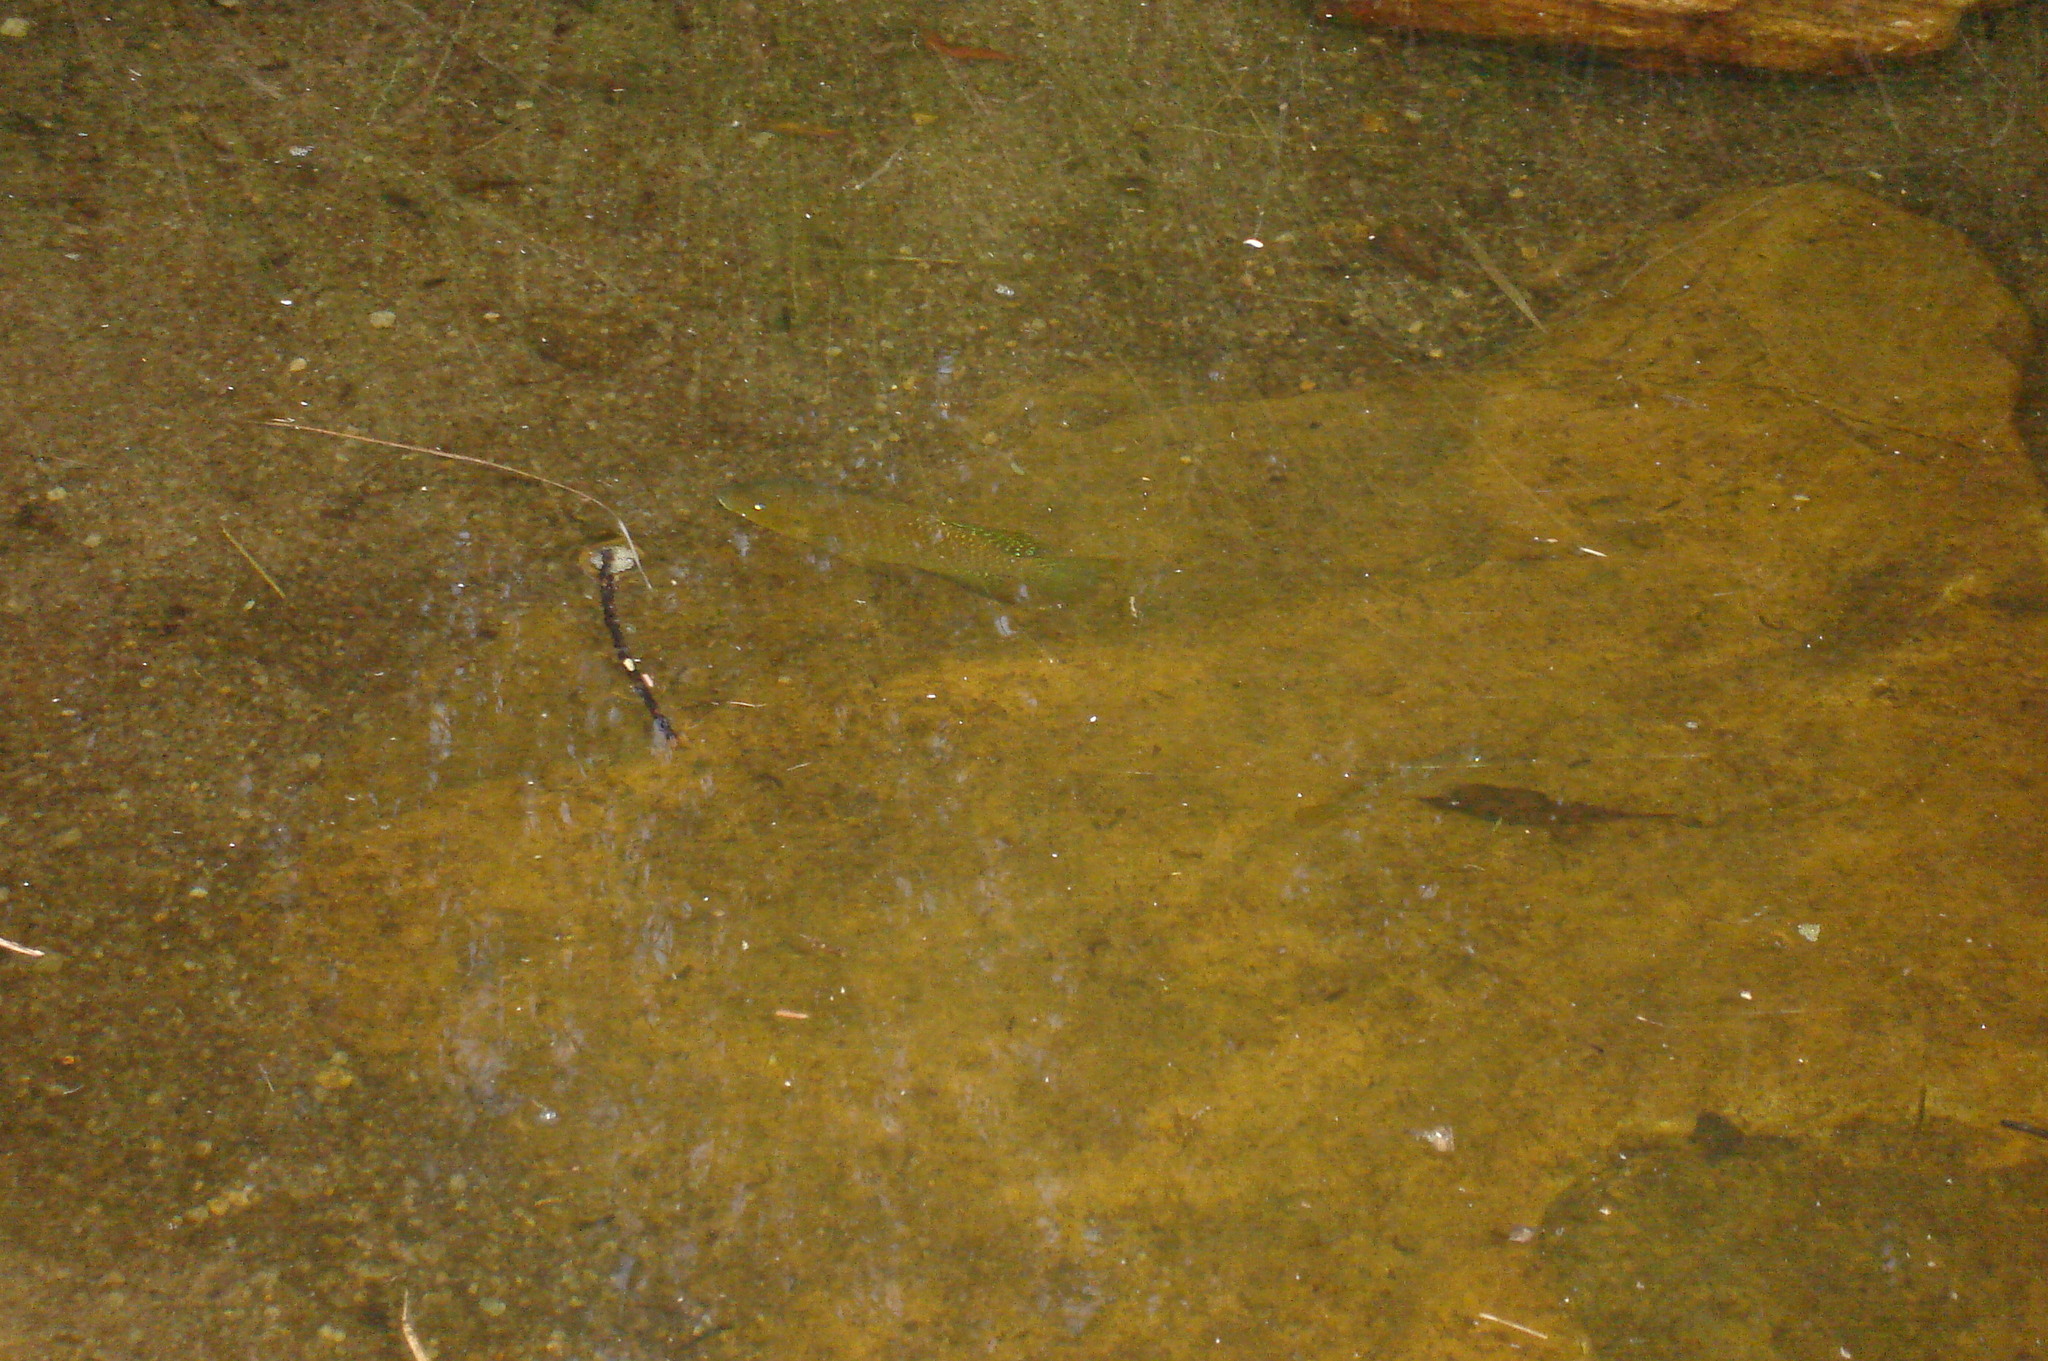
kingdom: Animalia
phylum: Chordata
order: Perciformes
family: Cichlidae
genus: Tilapia
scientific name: Tilapia sparrmanii
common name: Banded tilapia
